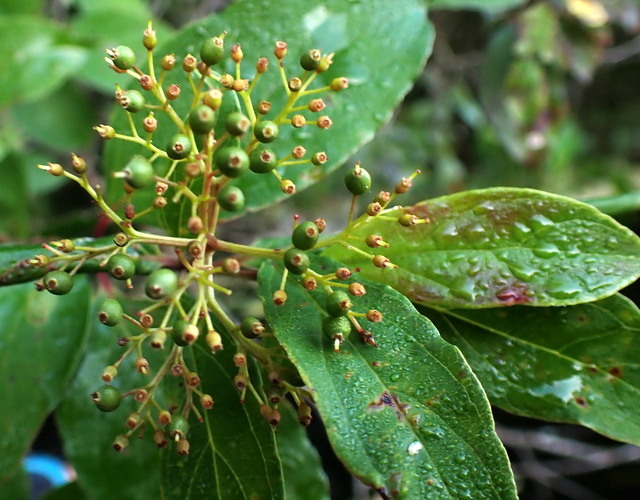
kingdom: Plantae
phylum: Tracheophyta
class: Magnoliopsida
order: Cornales
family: Cornaceae
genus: Cornus
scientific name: Cornus foemina
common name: Swamp dogwood
